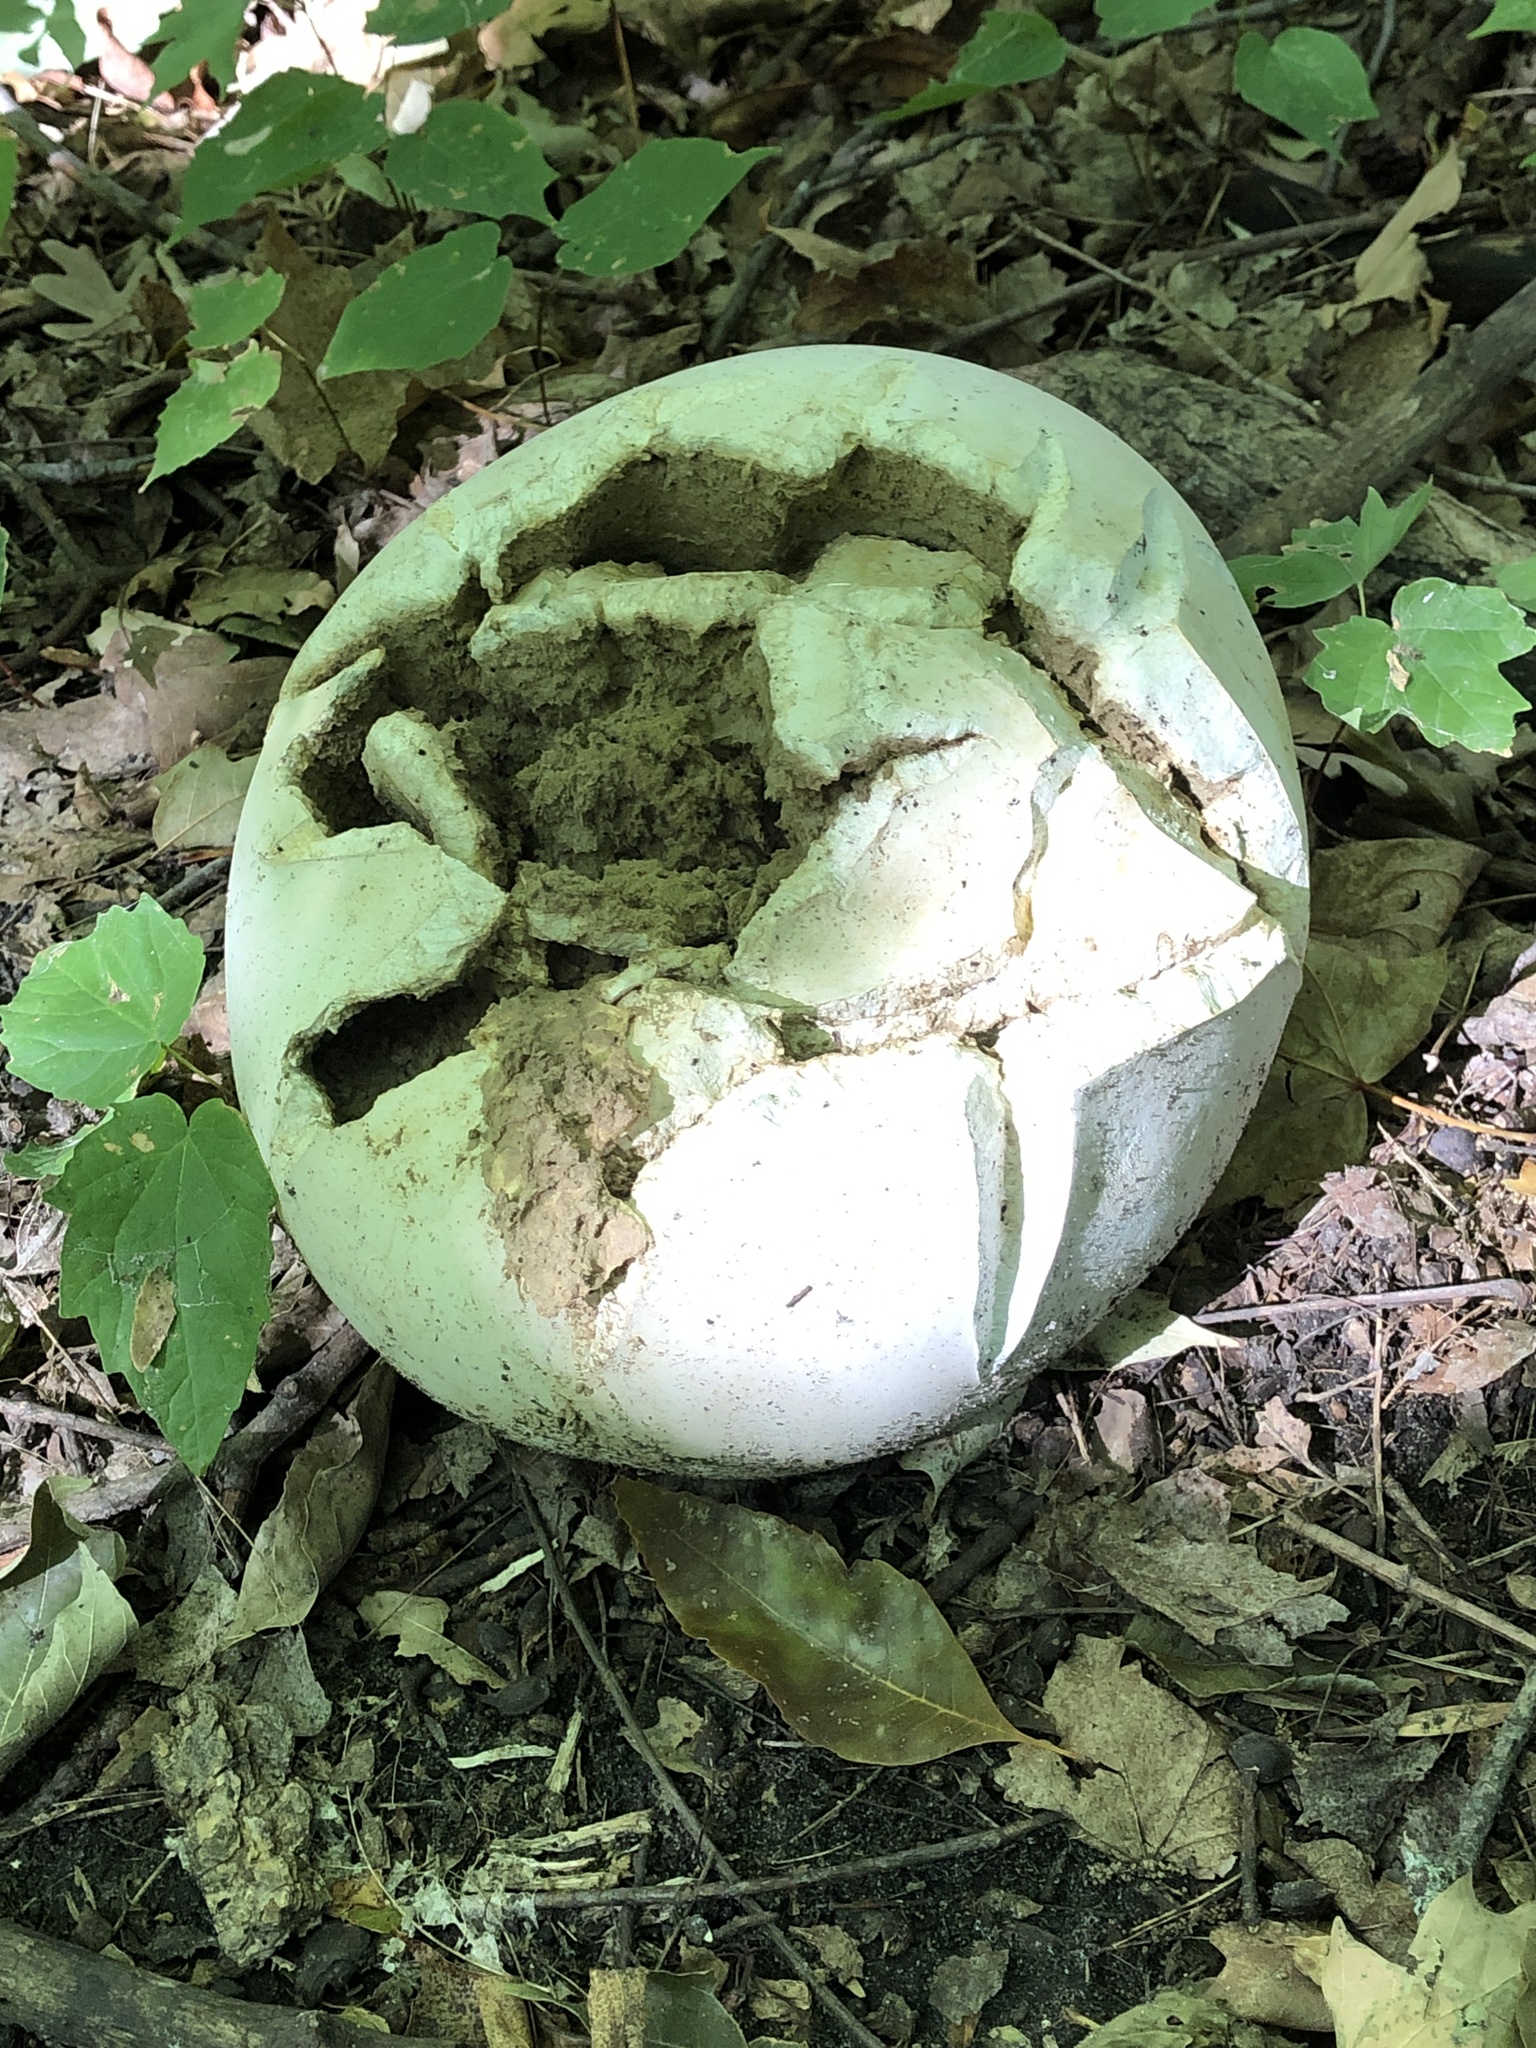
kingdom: Fungi
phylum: Basidiomycota
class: Agaricomycetes
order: Agaricales
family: Lycoperdaceae
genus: Calvatia
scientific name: Calvatia gigantea
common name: Giant puffball
